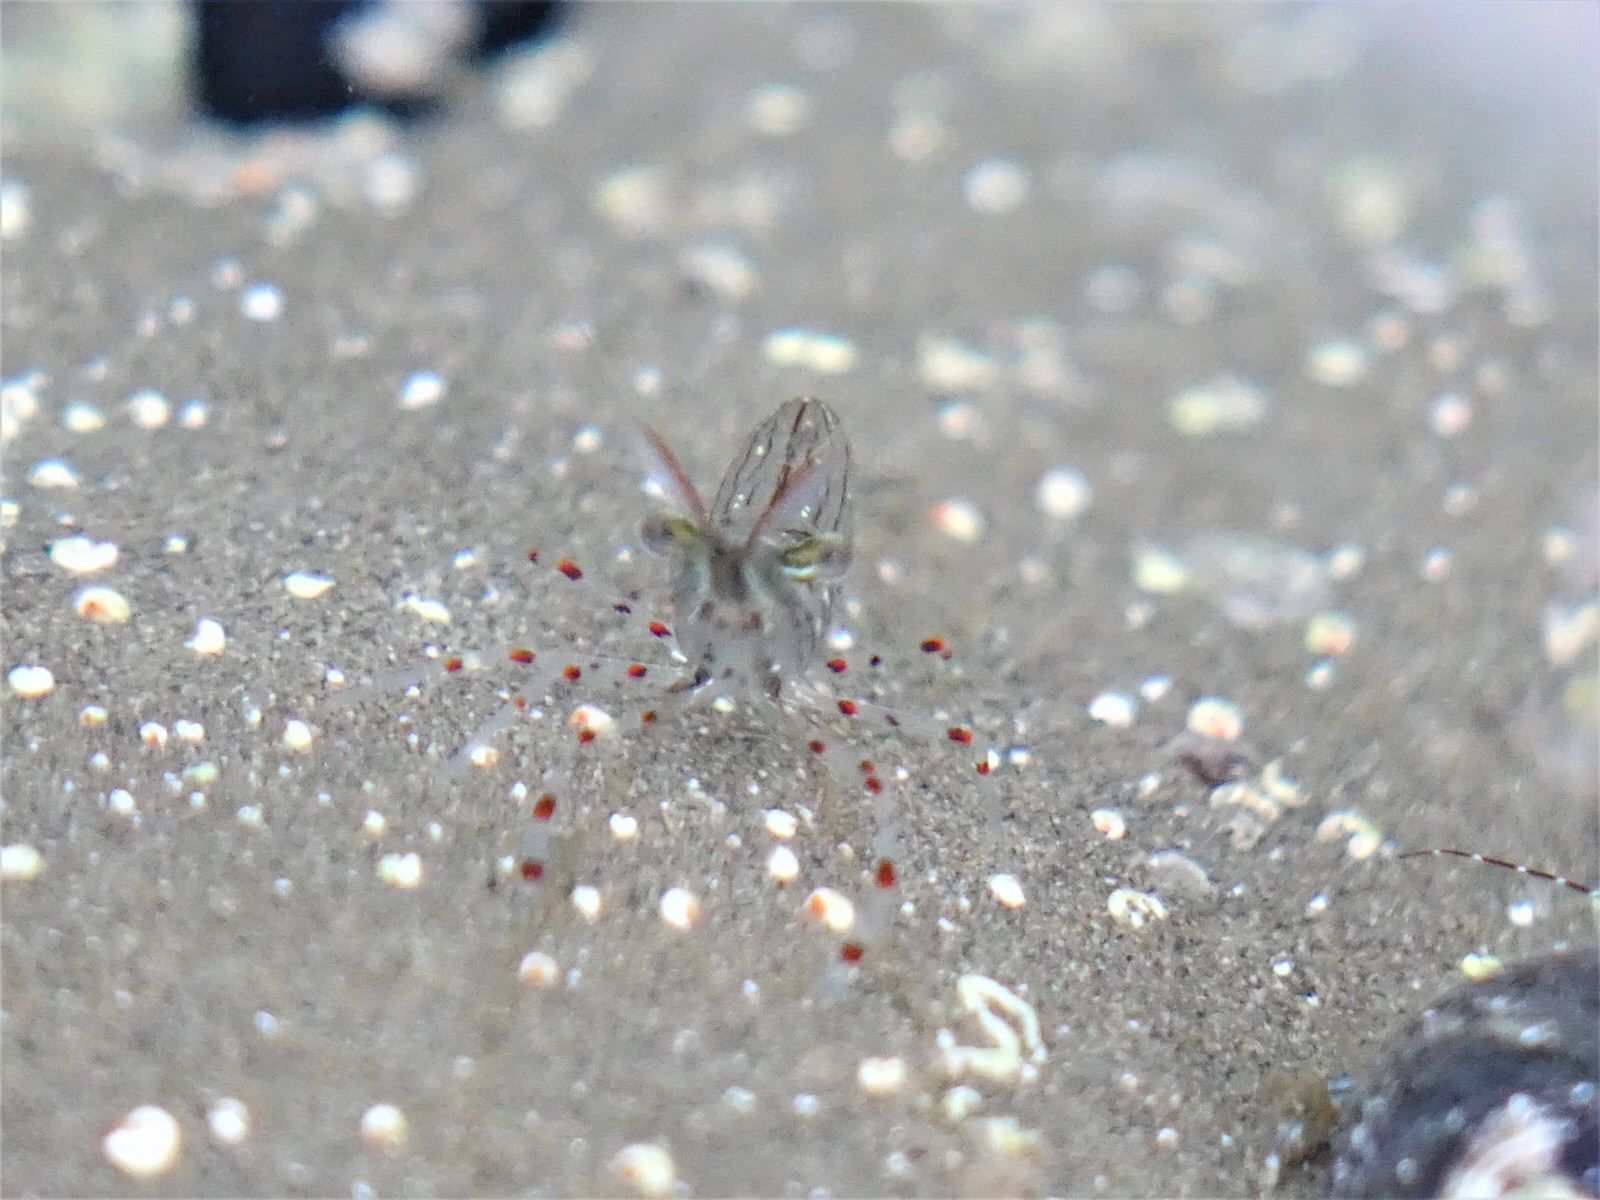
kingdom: Animalia
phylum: Arthropoda
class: Malacostraca
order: Decapoda
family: Palaemonidae
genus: Palaemon
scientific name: Palaemon affinis
